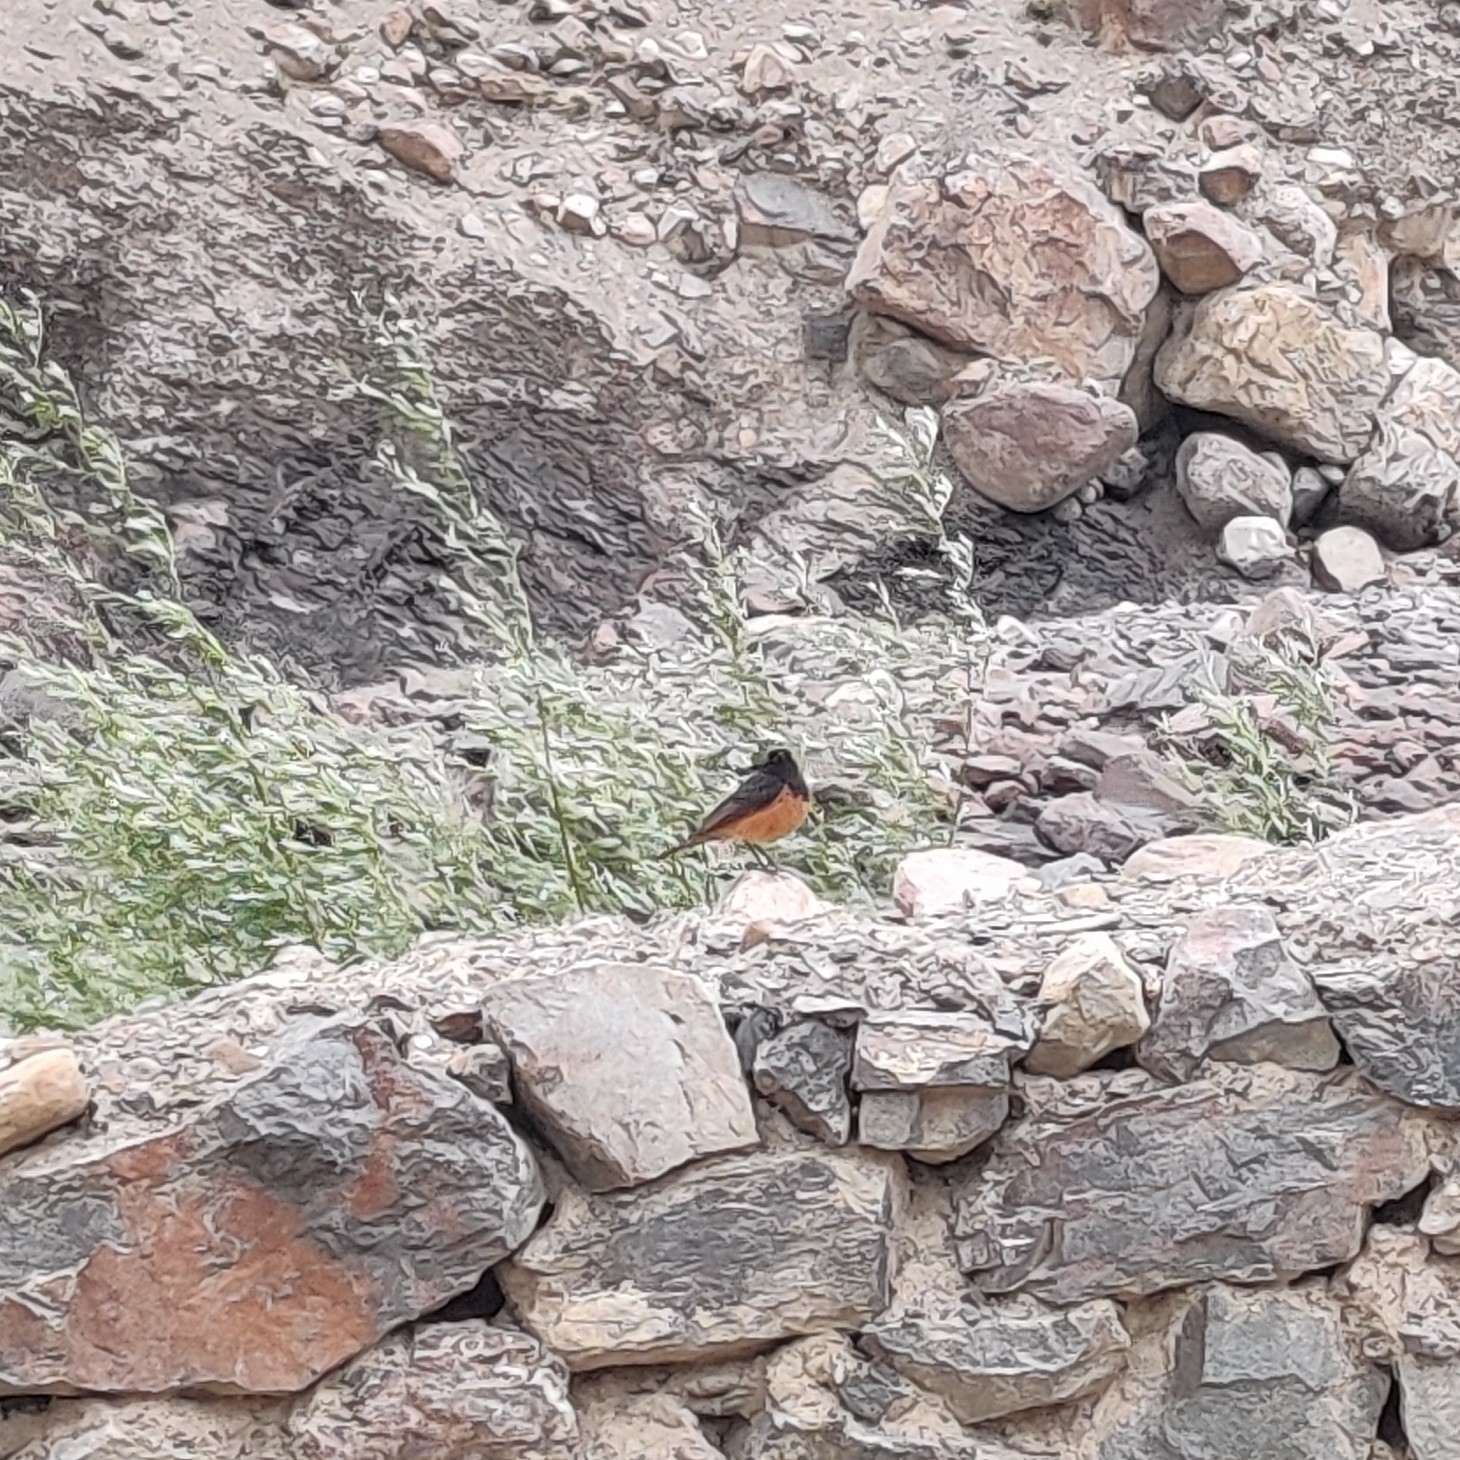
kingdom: Animalia
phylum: Chordata
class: Aves
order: Passeriformes
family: Muscicapidae
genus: Phoenicurus
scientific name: Phoenicurus frontalis
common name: Blue-fronted redstart
